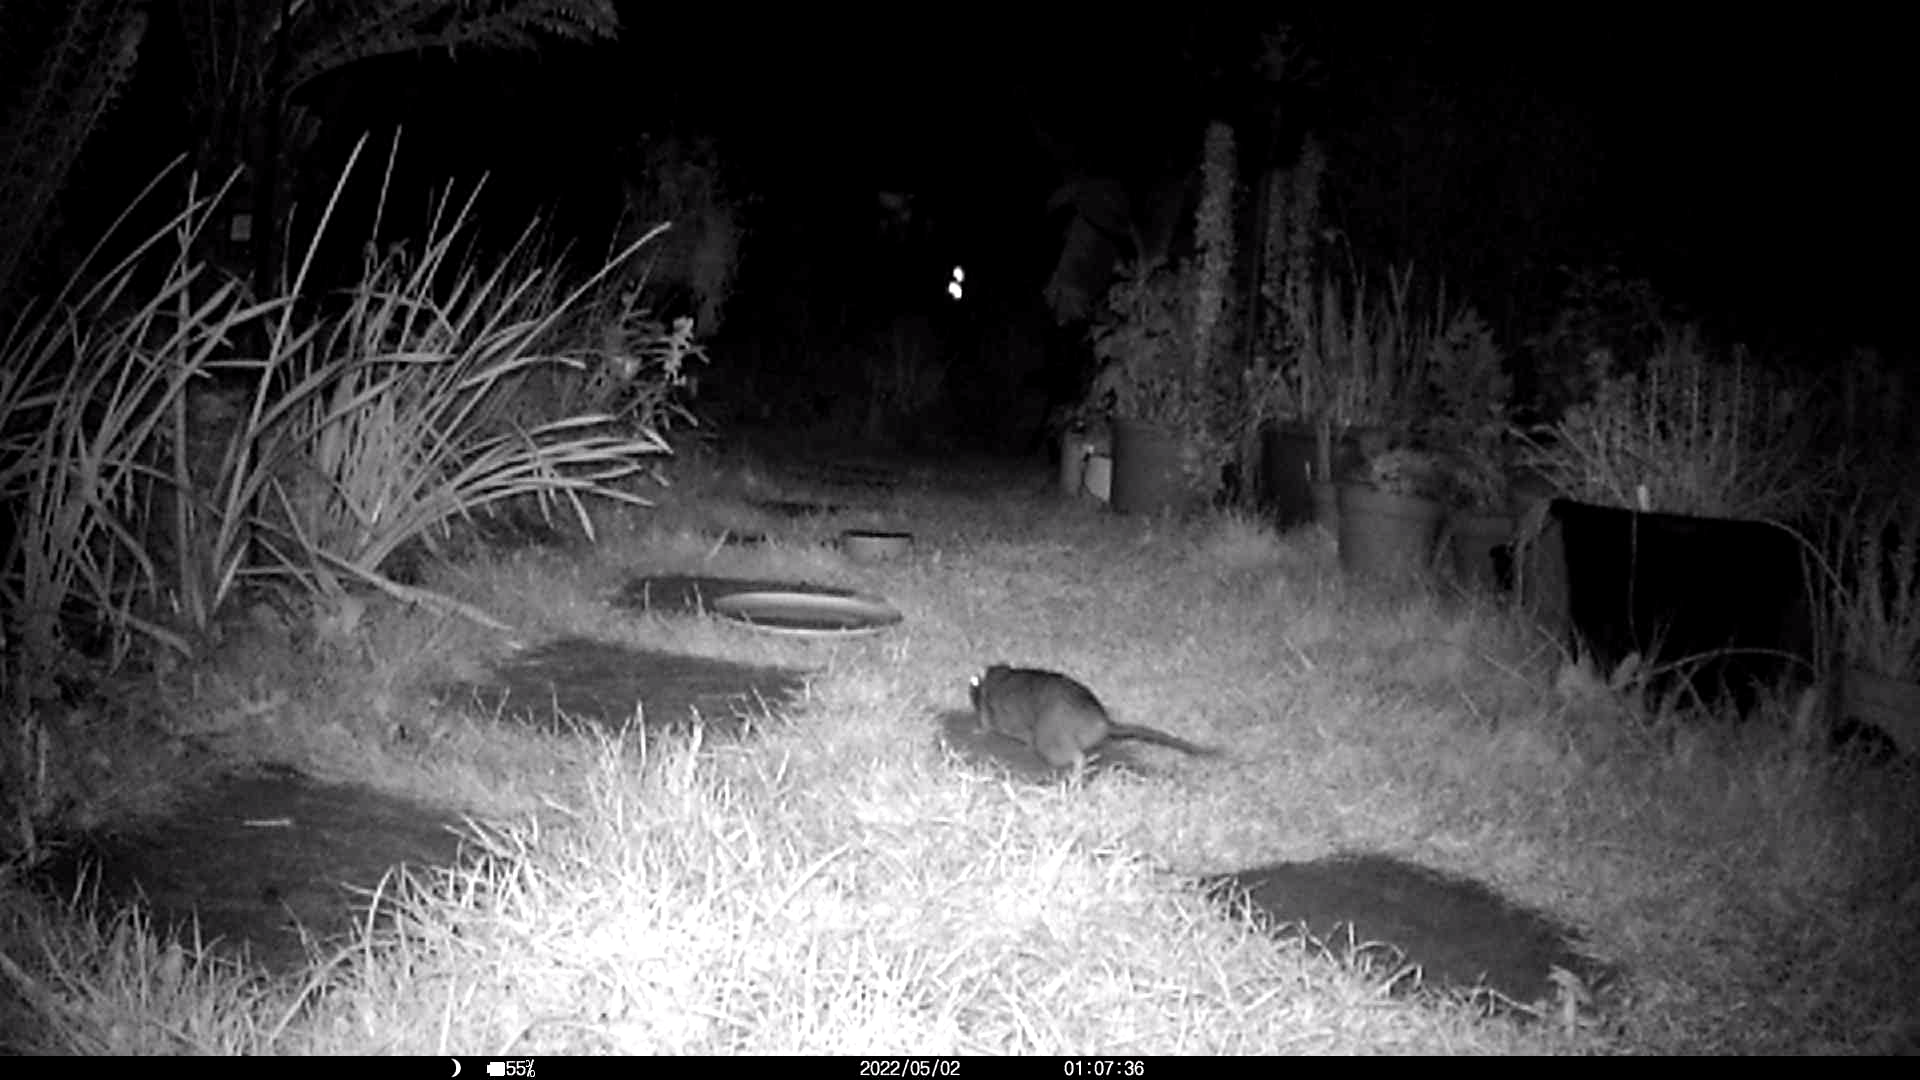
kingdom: Animalia
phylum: Chordata
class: Mammalia
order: Rodentia
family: Muridae
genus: Rattus
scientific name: Rattus norvegicus
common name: Brown rat
